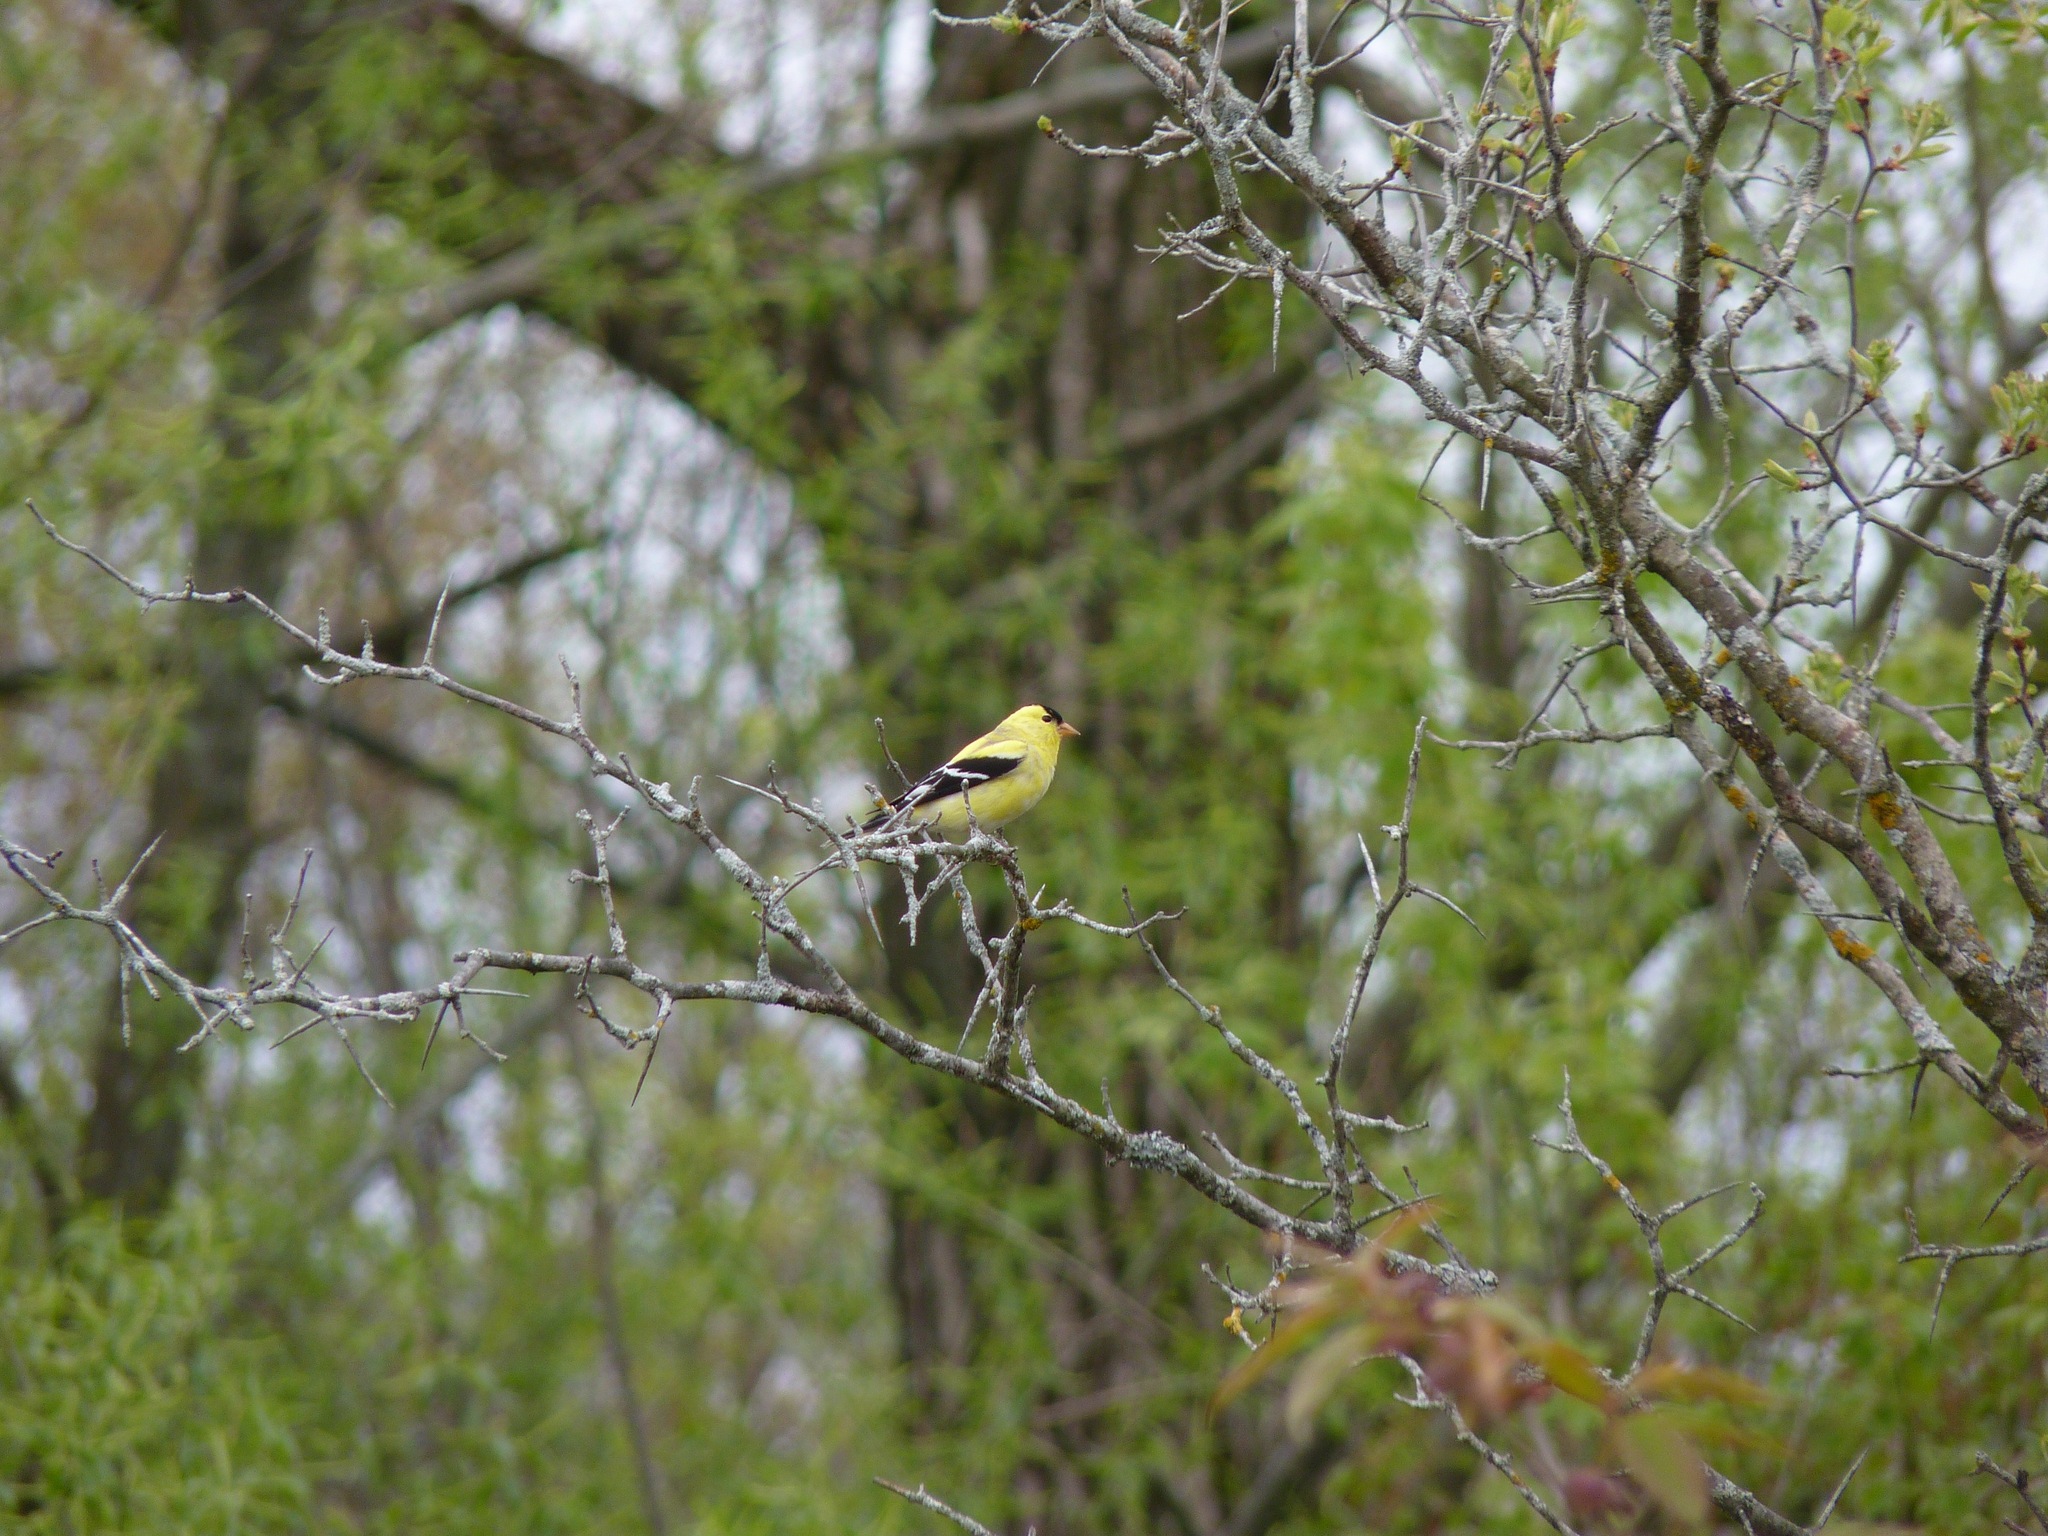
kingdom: Animalia
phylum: Chordata
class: Aves
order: Passeriformes
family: Fringillidae
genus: Spinus
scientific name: Spinus tristis
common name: American goldfinch
